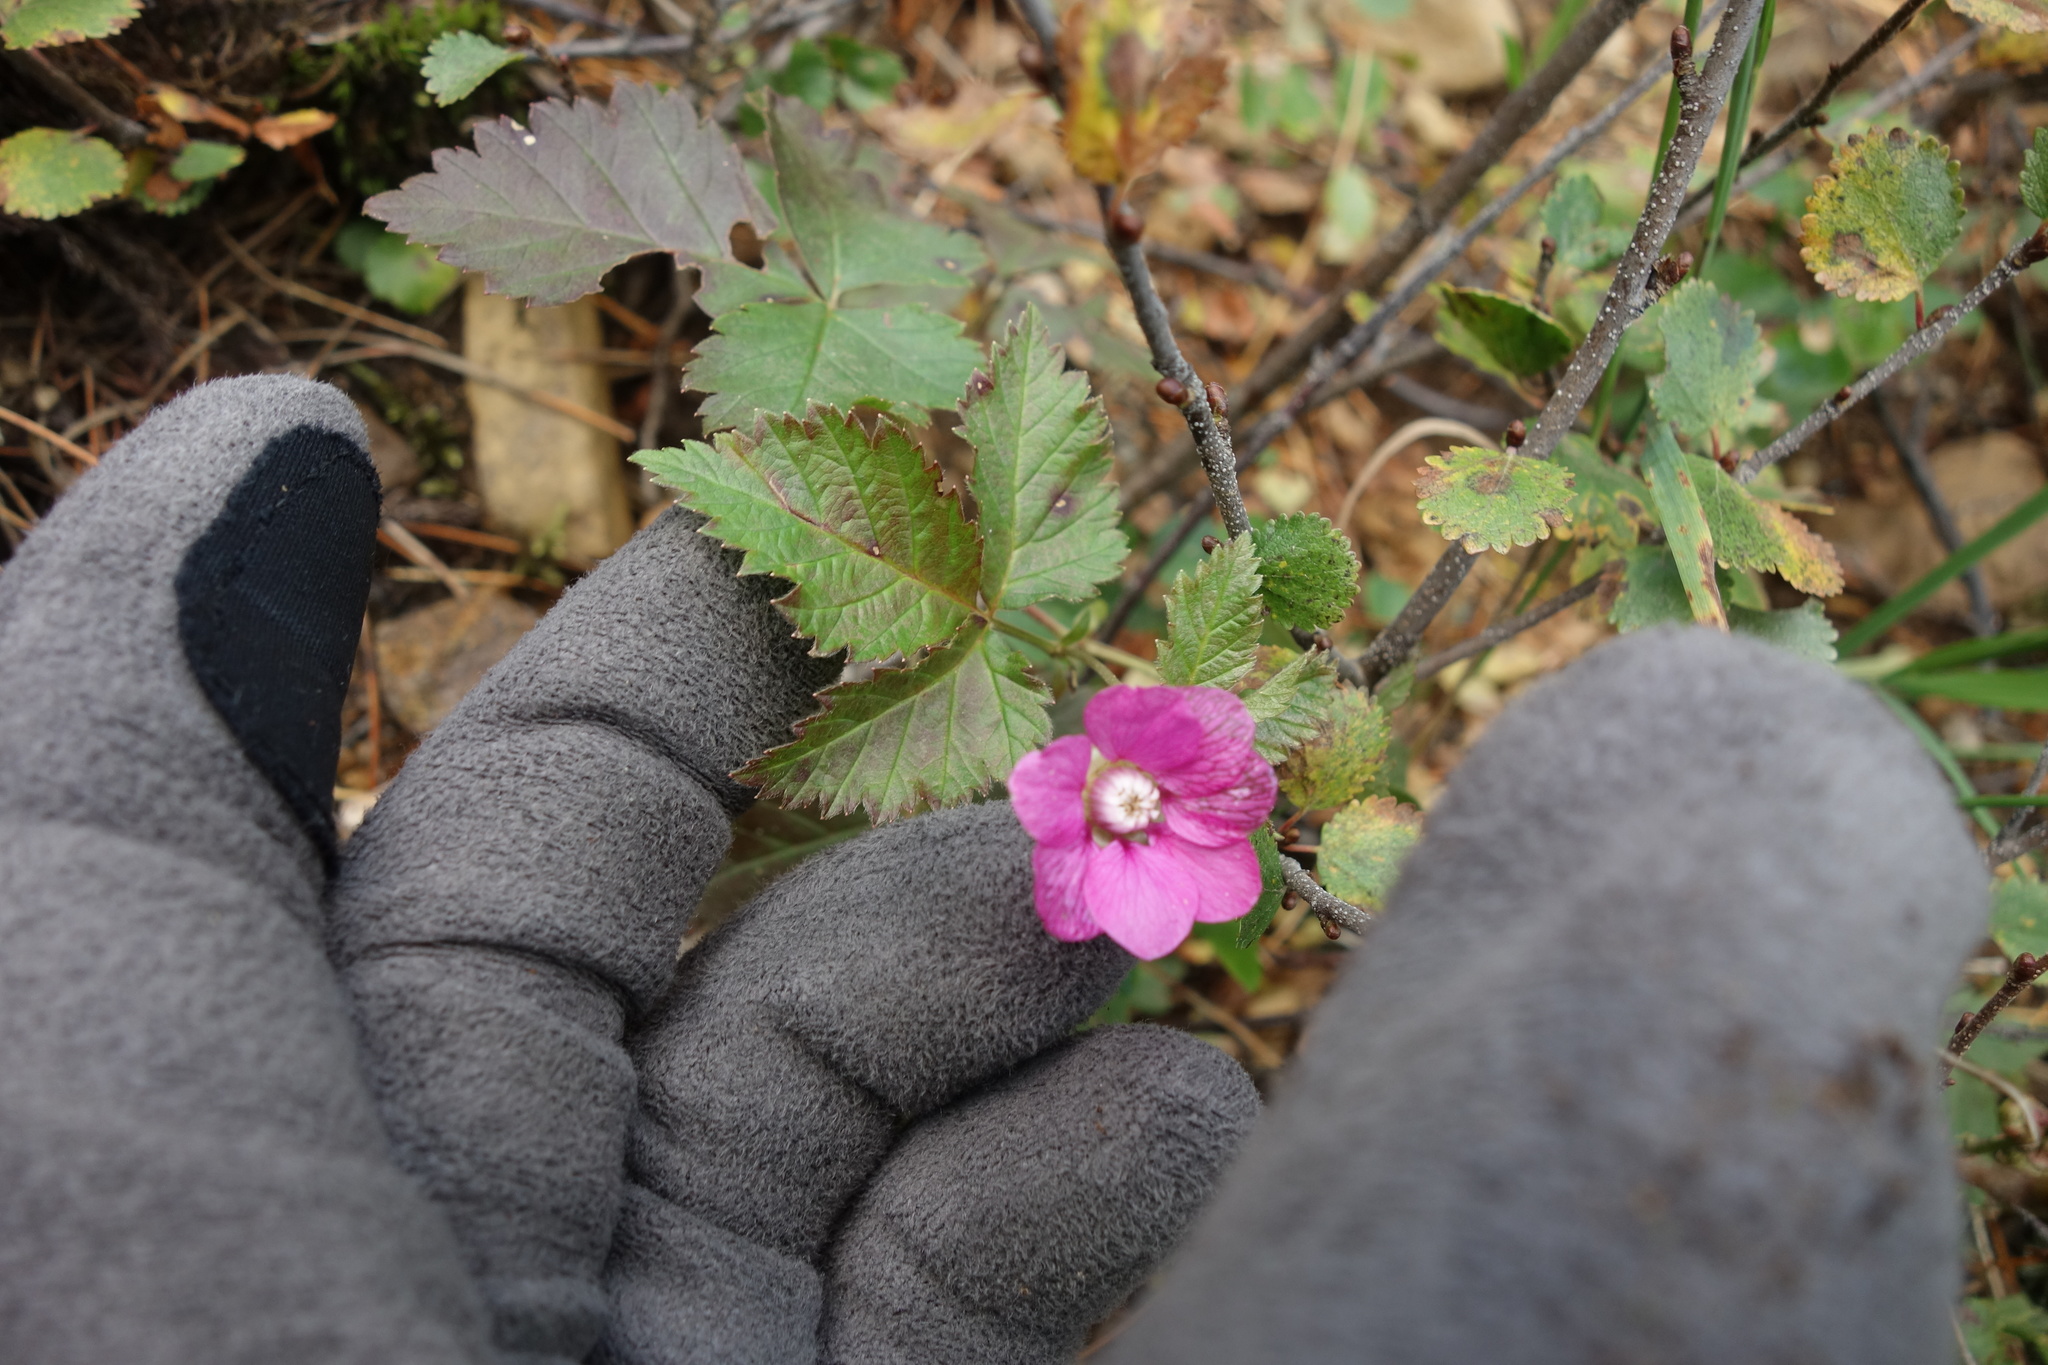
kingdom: Plantae
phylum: Tracheophyta
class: Magnoliopsida
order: Rosales
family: Rosaceae
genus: Rubus
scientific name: Rubus arcticus
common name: Arctic bramble
